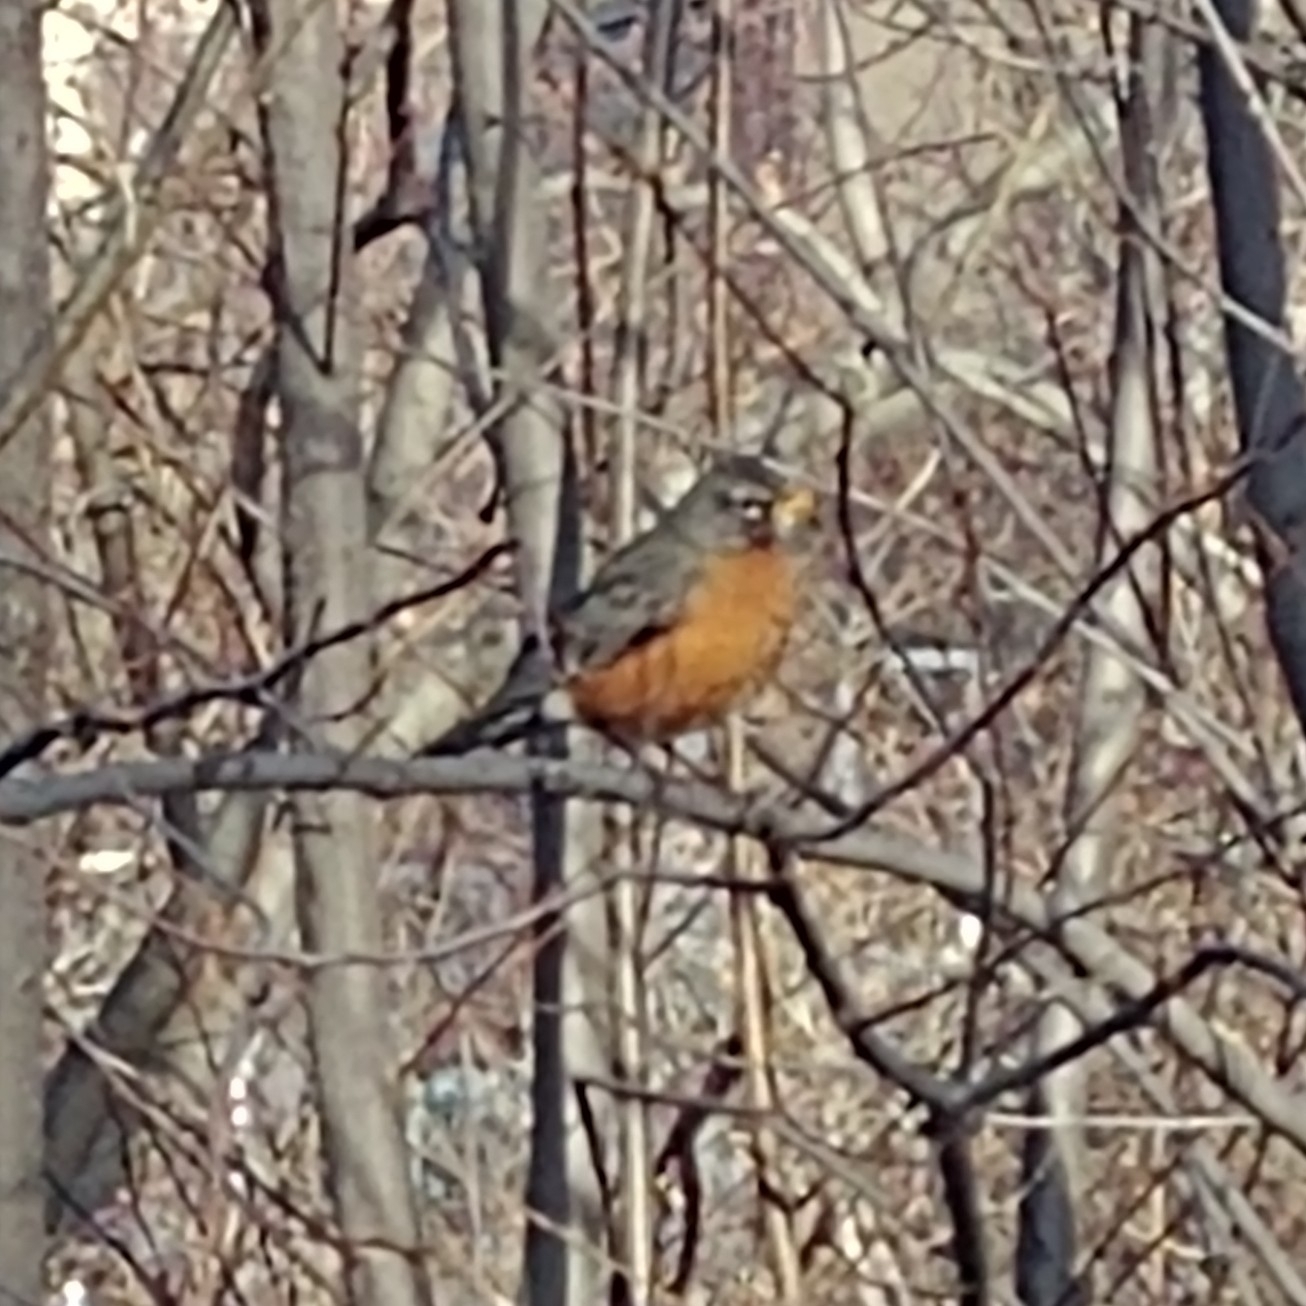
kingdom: Animalia
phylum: Chordata
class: Aves
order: Passeriformes
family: Turdidae
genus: Turdus
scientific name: Turdus migratorius
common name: American robin
